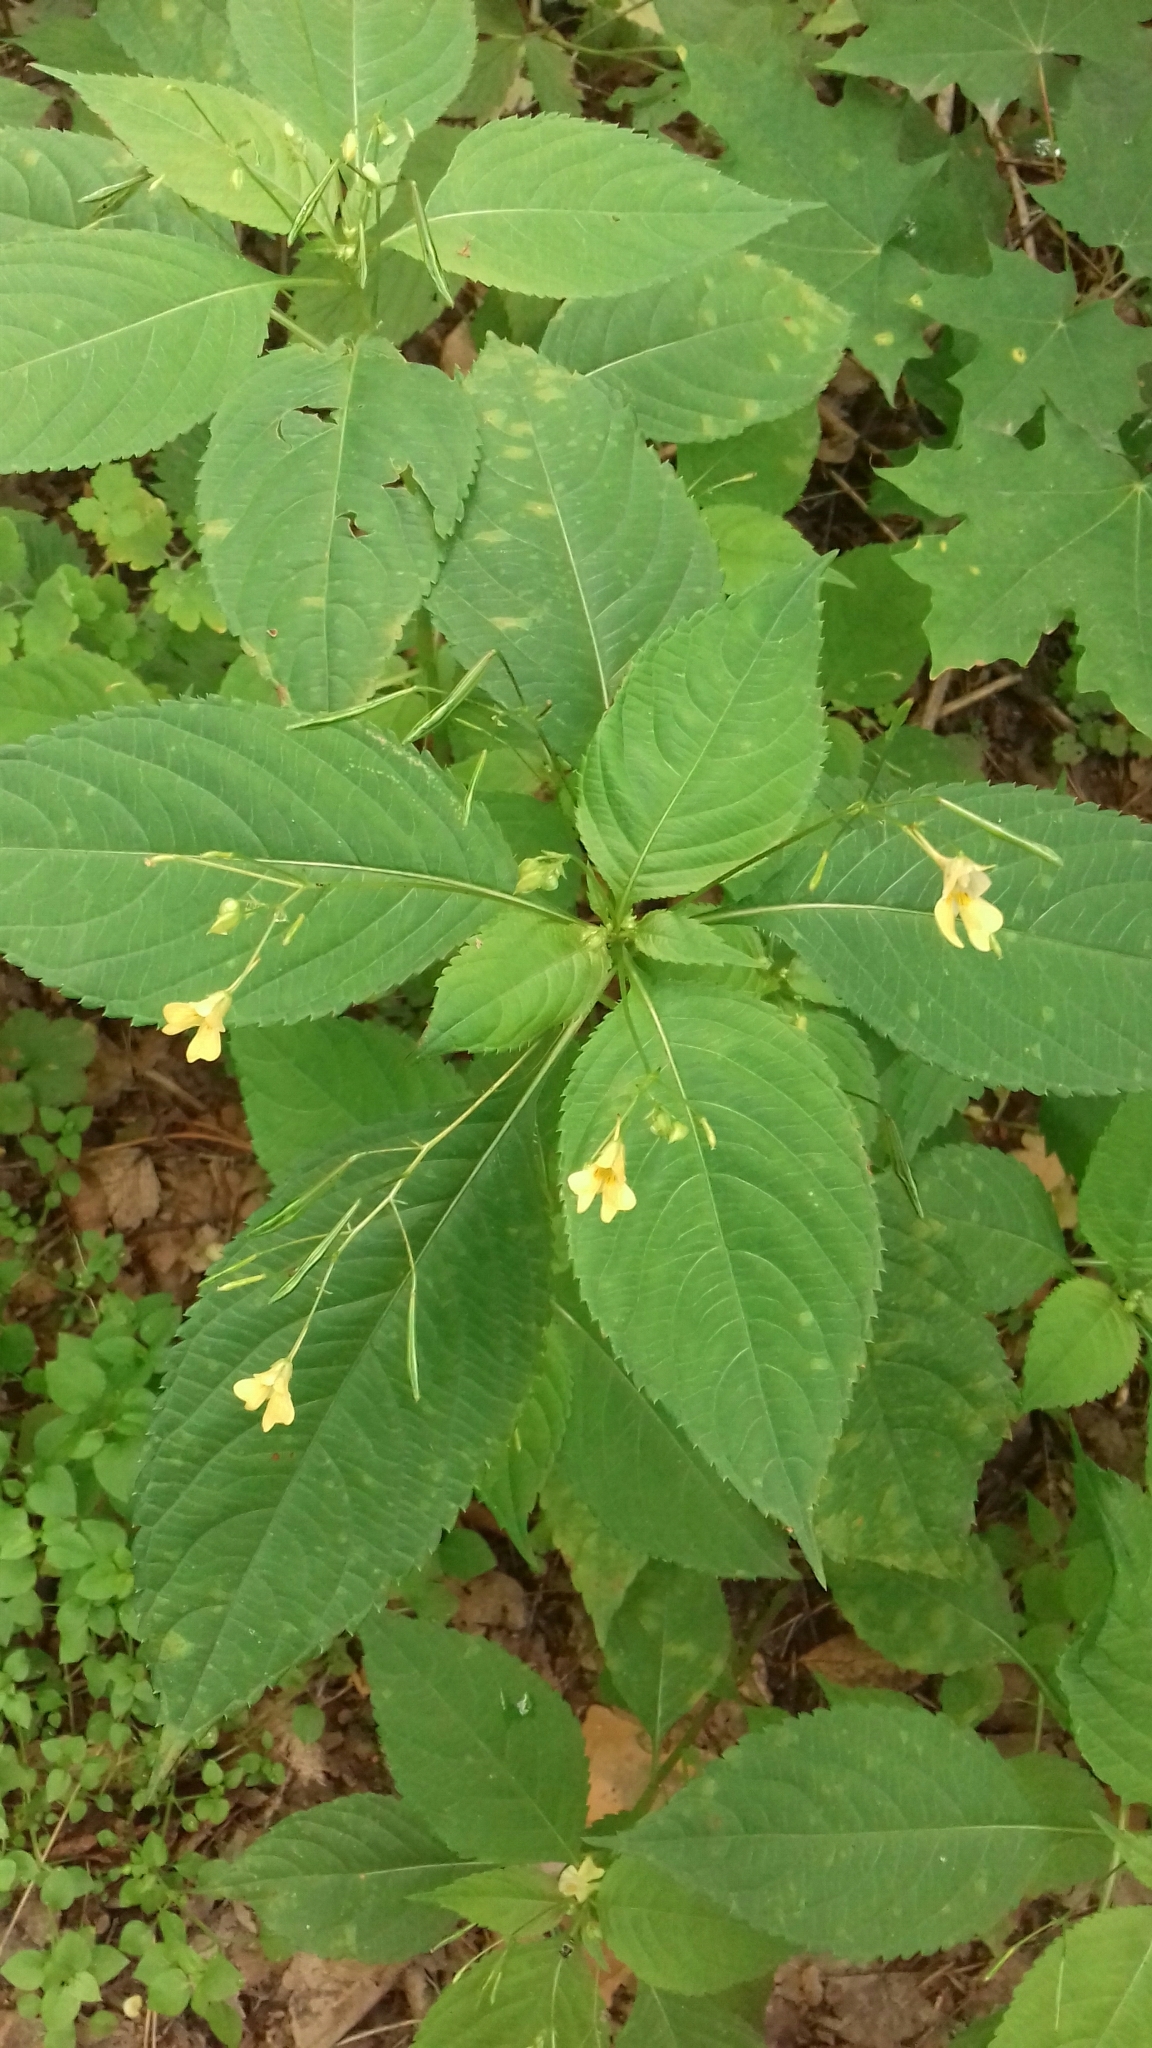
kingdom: Plantae
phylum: Tracheophyta
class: Magnoliopsida
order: Ericales
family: Balsaminaceae
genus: Impatiens
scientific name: Impatiens parviflora
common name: Small balsam
